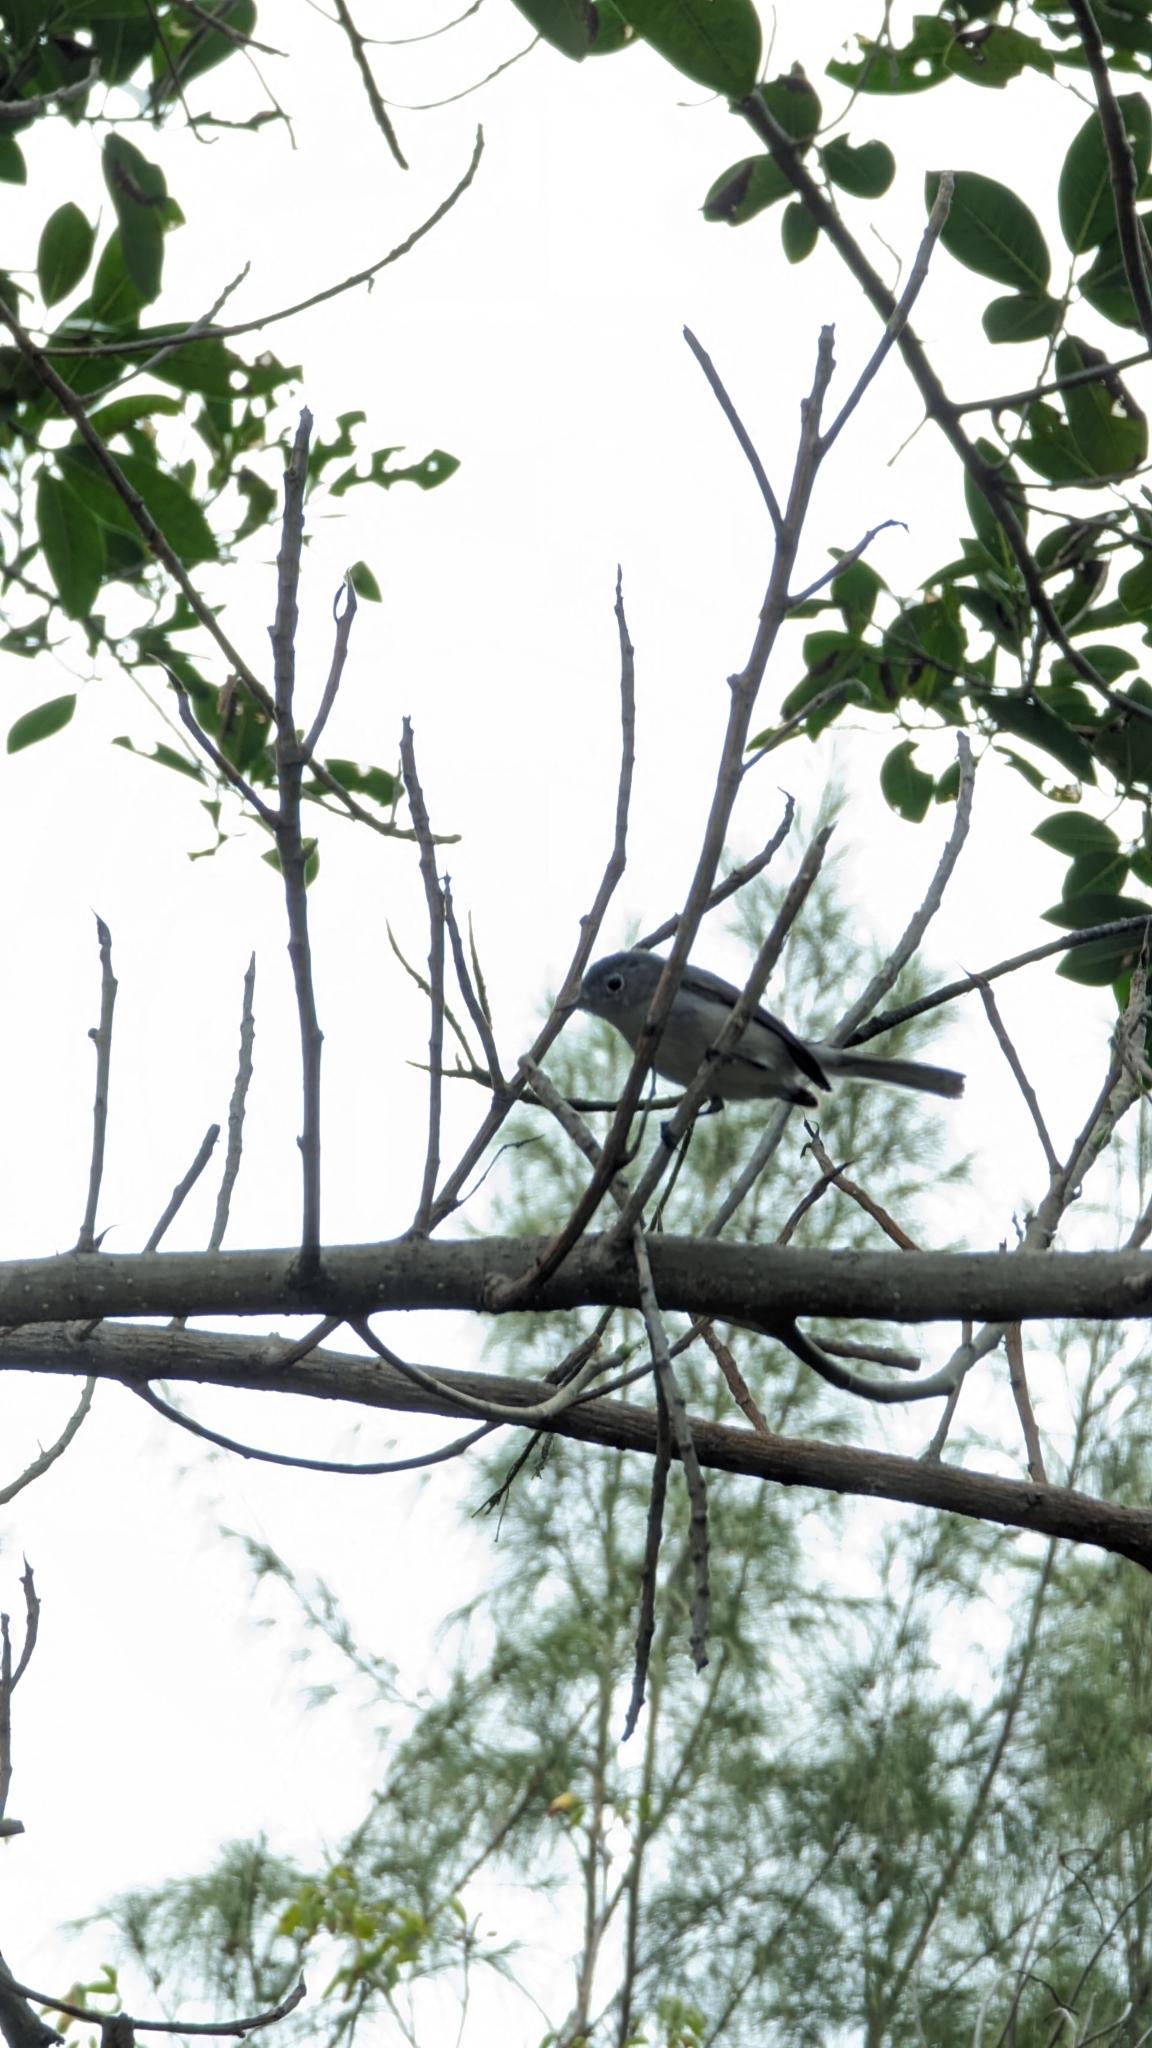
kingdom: Animalia
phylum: Chordata
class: Aves
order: Passeriformes
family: Polioptilidae
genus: Polioptila
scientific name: Polioptila caerulea
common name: Blue-gray gnatcatcher
